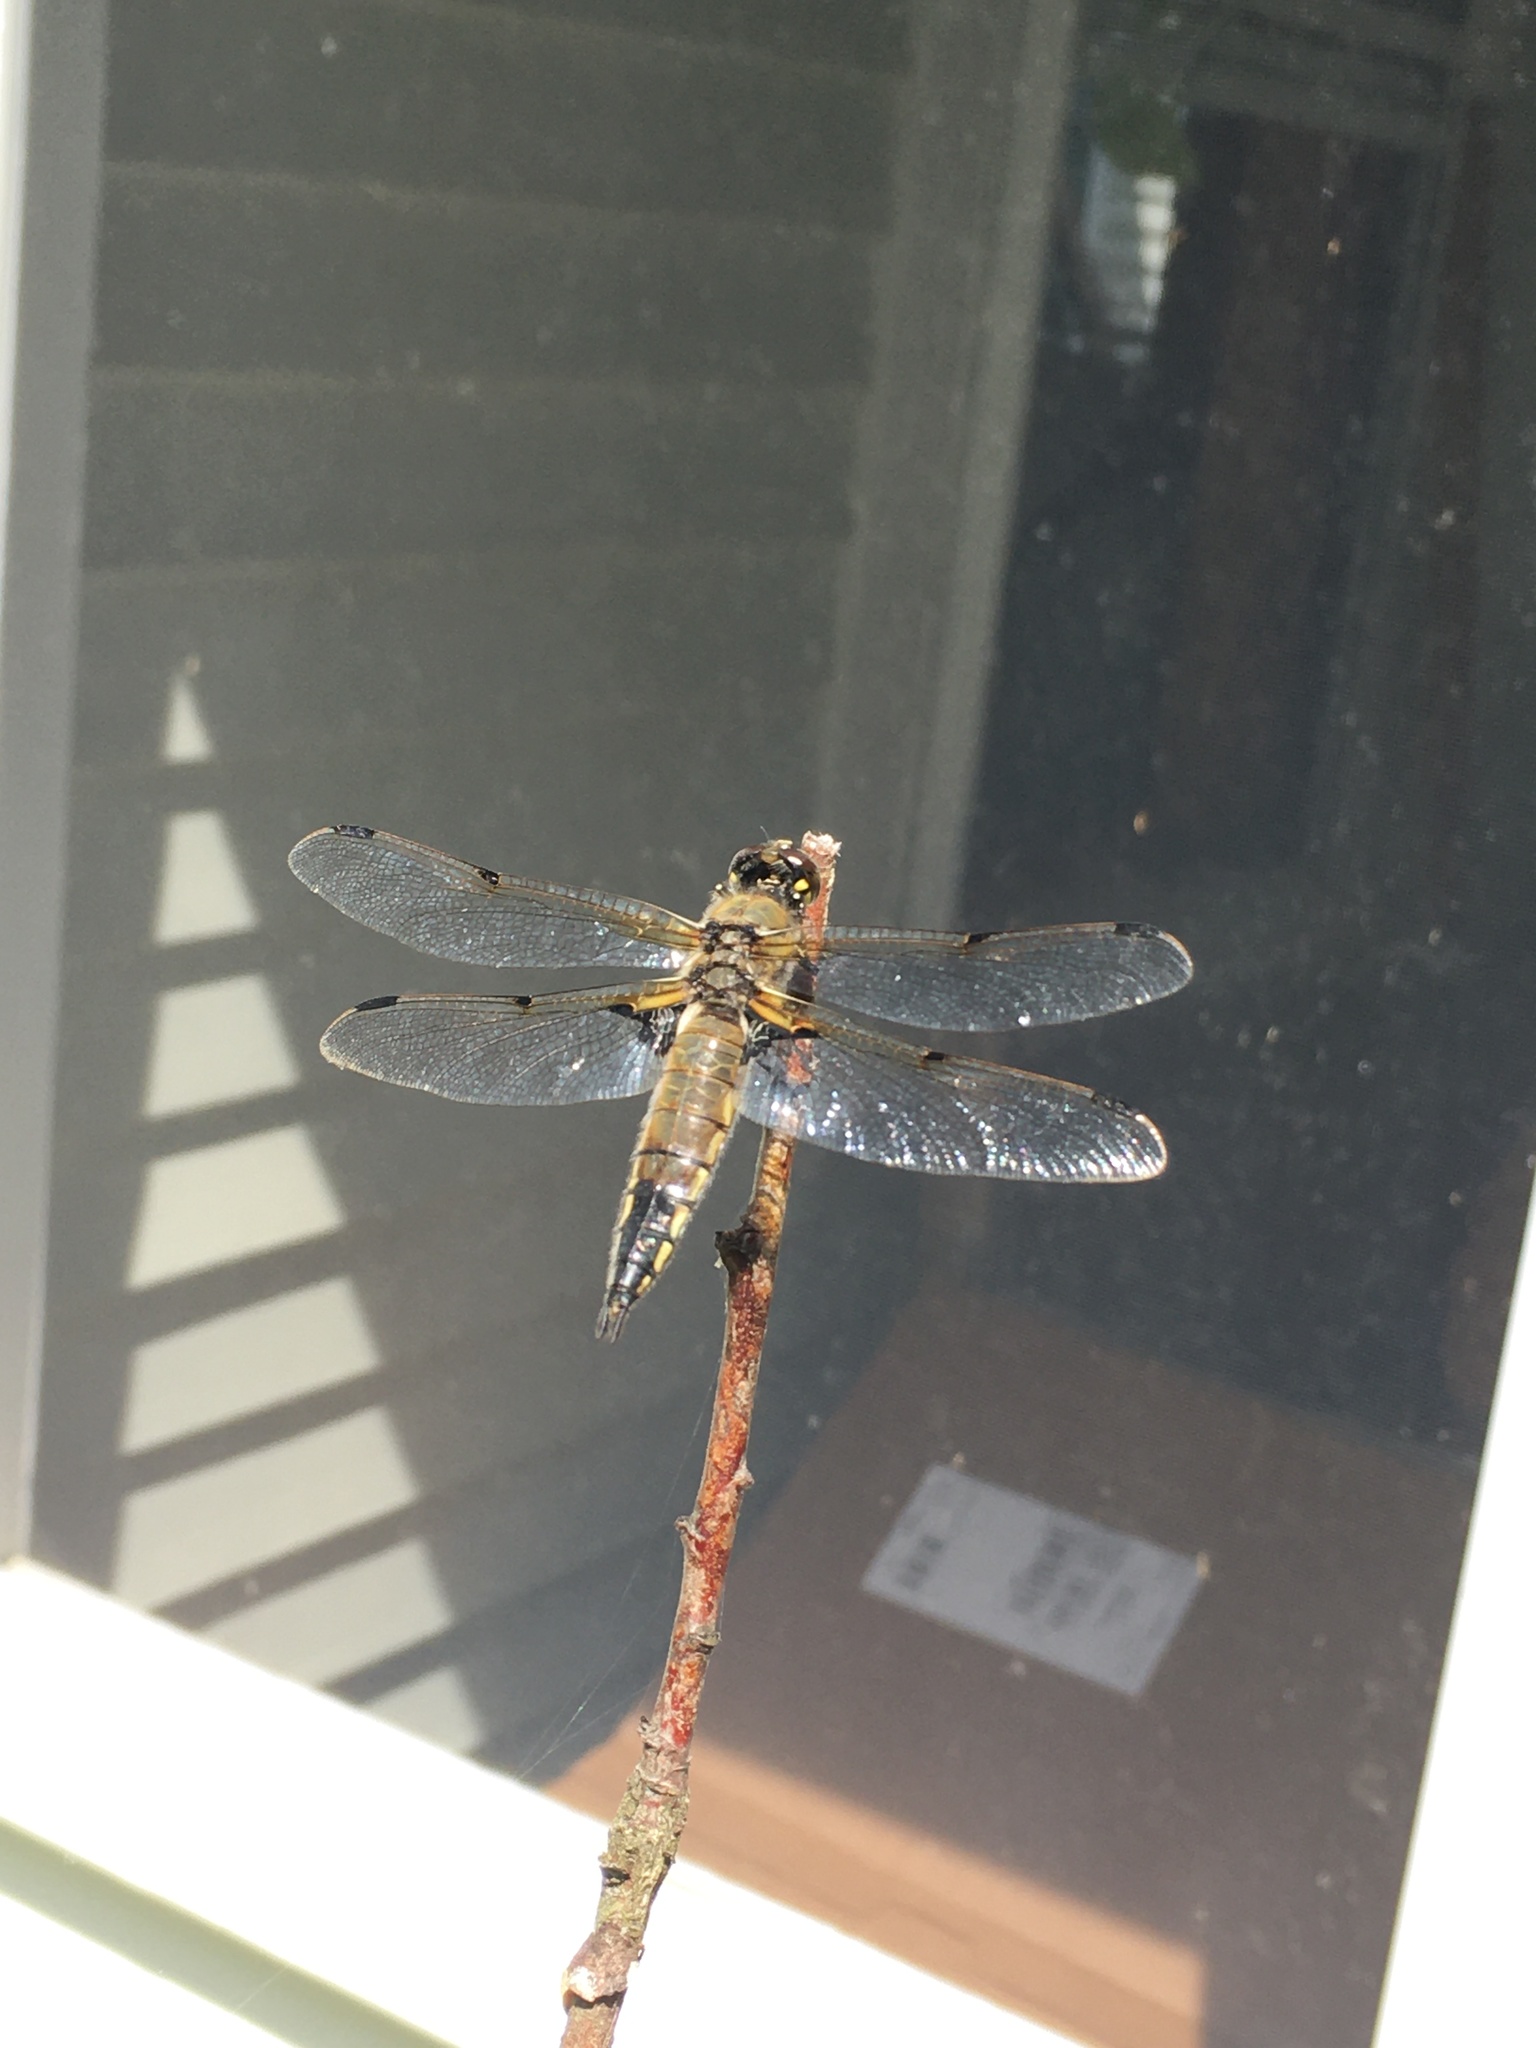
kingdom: Animalia
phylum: Arthropoda
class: Insecta
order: Odonata
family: Libellulidae
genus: Libellula
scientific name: Libellula quadrimaculata
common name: Four-spotted chaser
